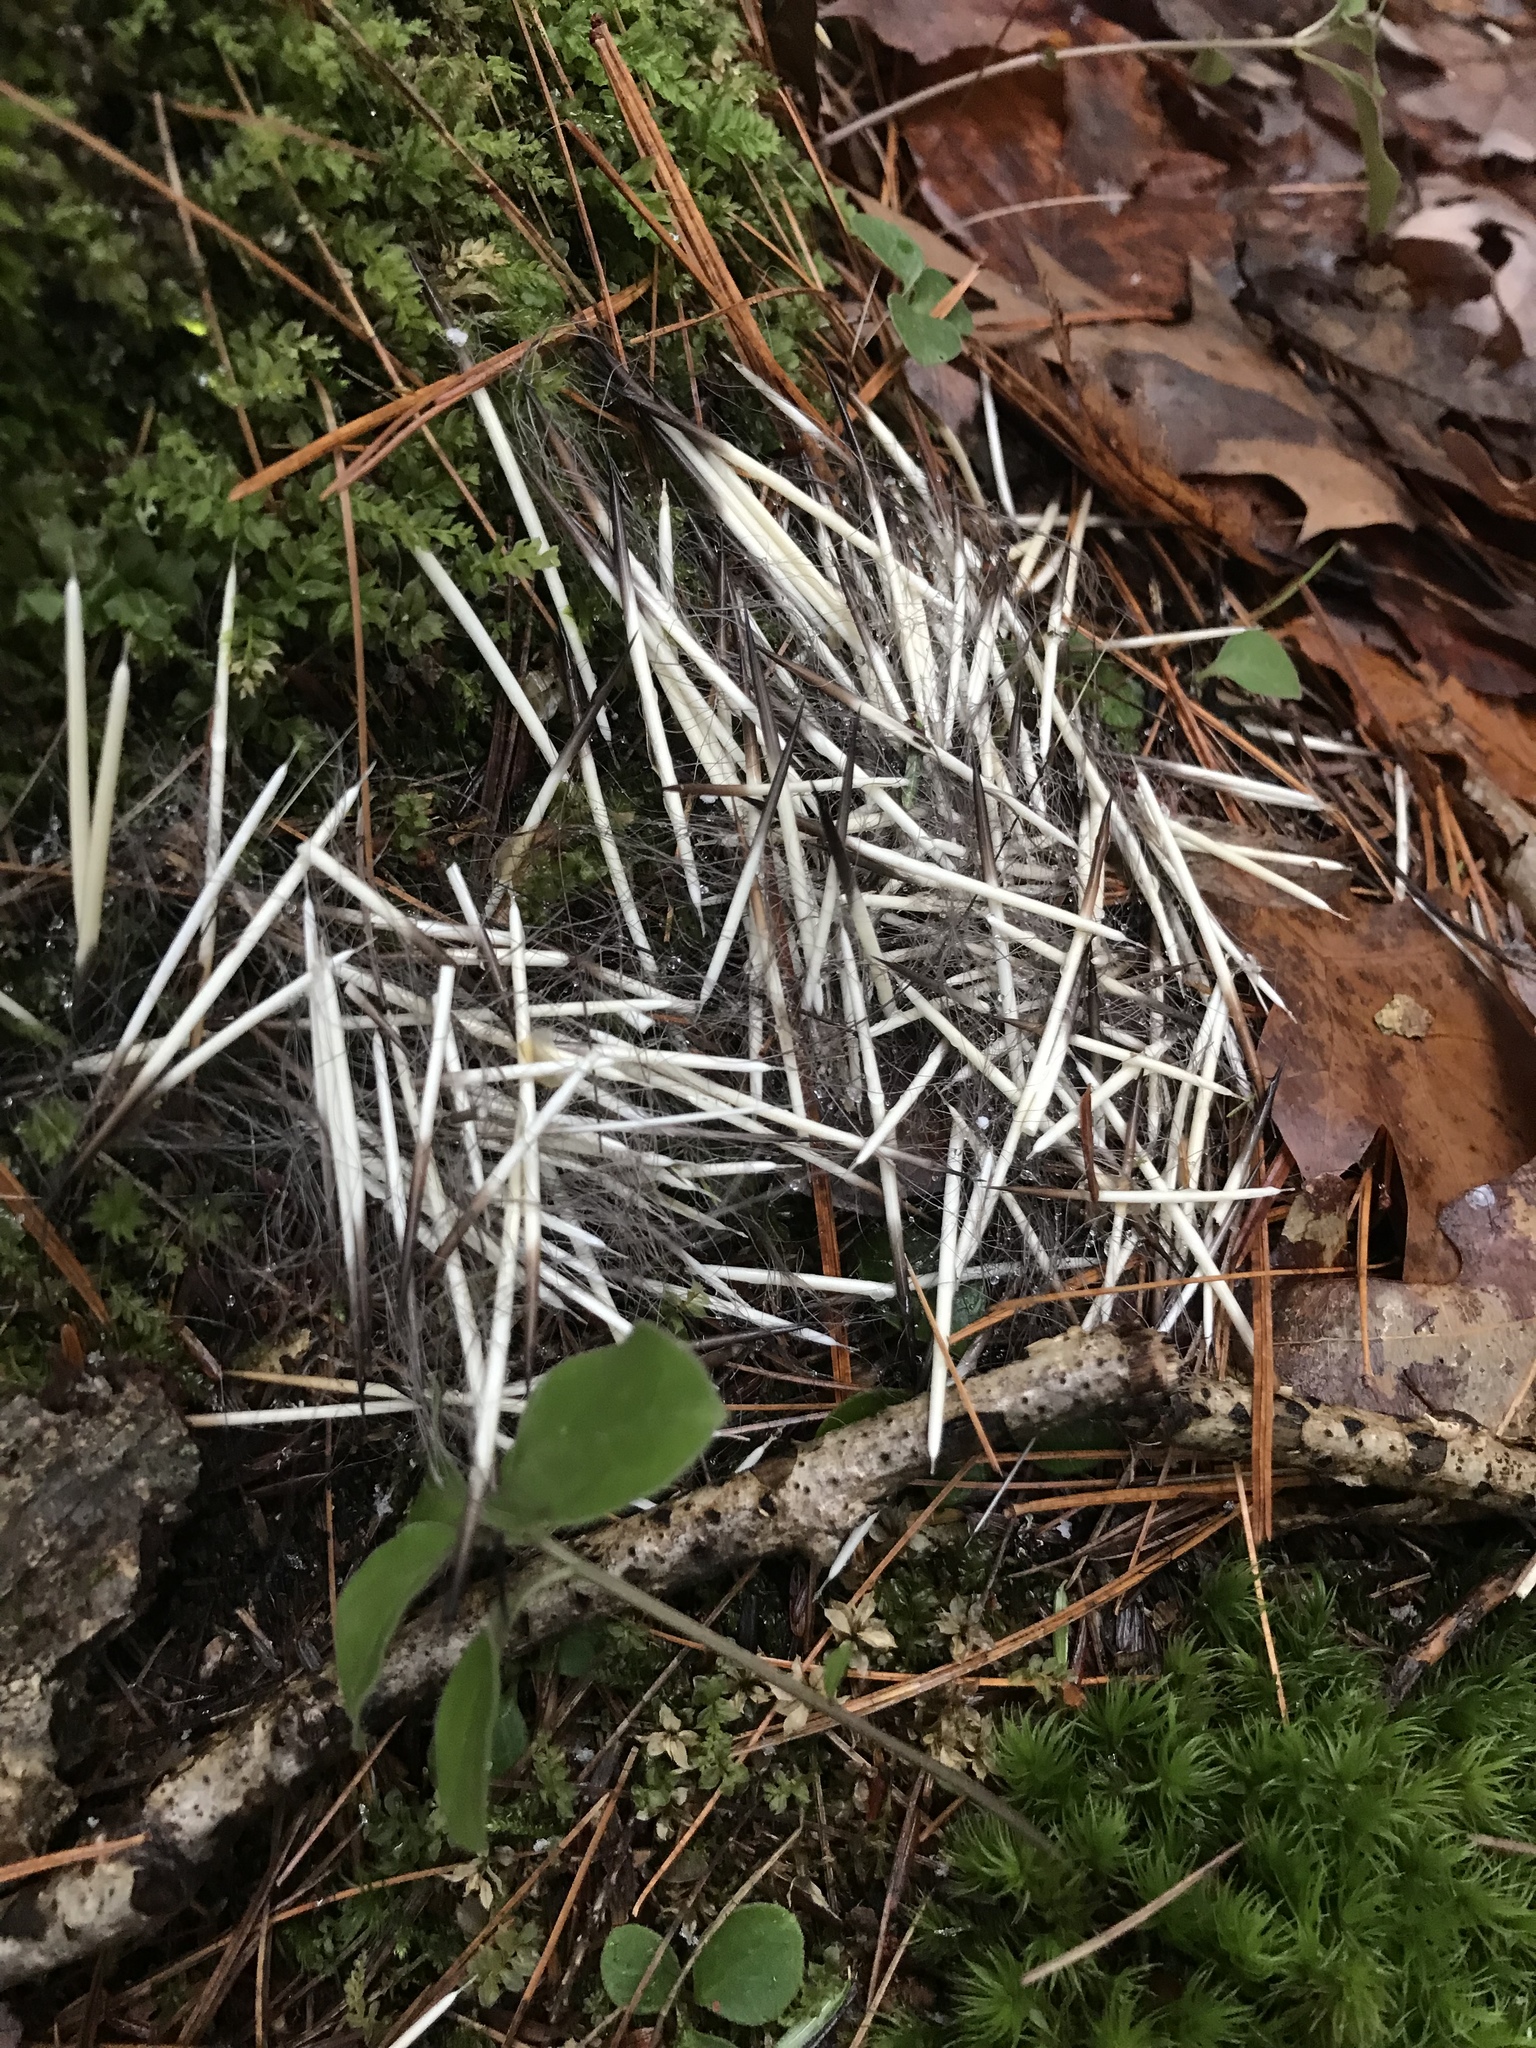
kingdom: Animalia
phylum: Chordata
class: Mammalia
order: Rodentia
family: Erethizontidae
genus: Erethizon
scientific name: Erethizon dorsatus
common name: North american porcupine
